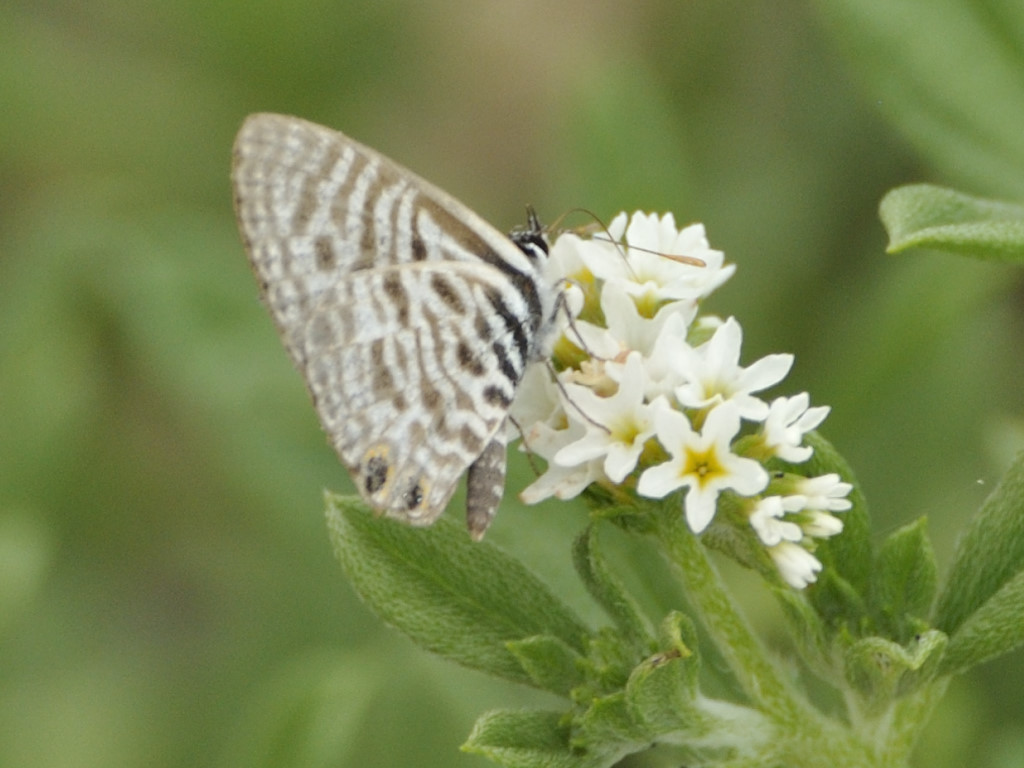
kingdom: Animalia
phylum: Arthropoda
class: Insecta
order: Lepidoptera
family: Lycaenidae
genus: Leptotes
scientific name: Leptotes
